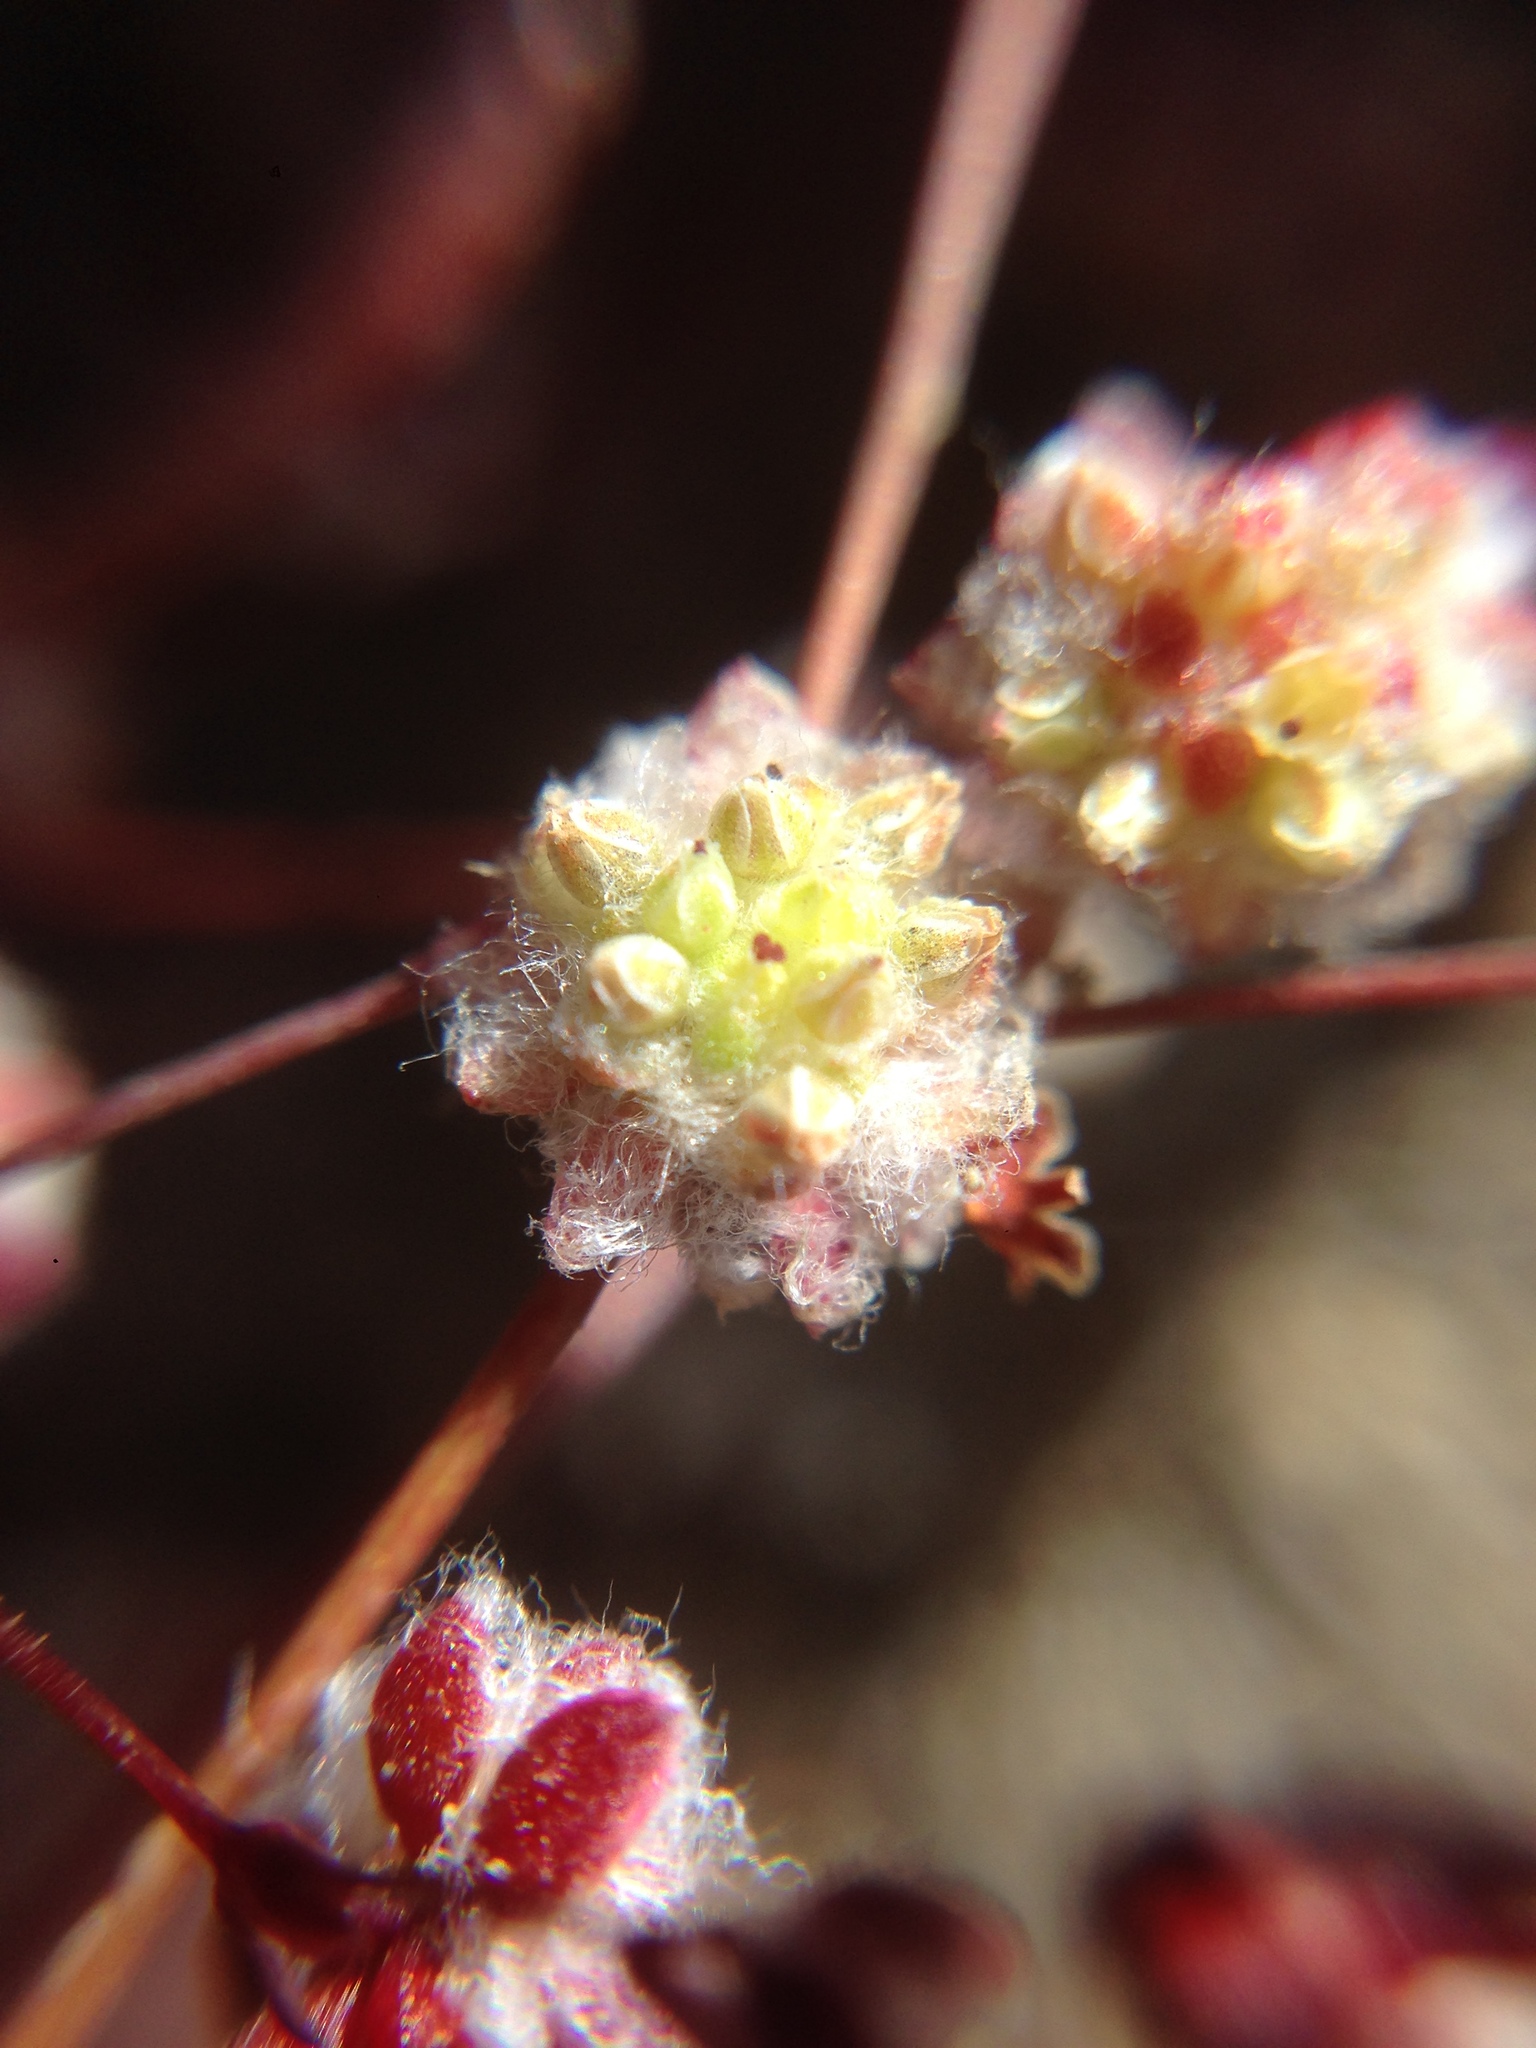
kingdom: Plantae
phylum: Tracheophyta
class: Magnoliopsida
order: Caryophyllales
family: Polygonaceae
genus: Nemacaulis
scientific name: Nemacaulis denudata
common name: Woolly-heads
